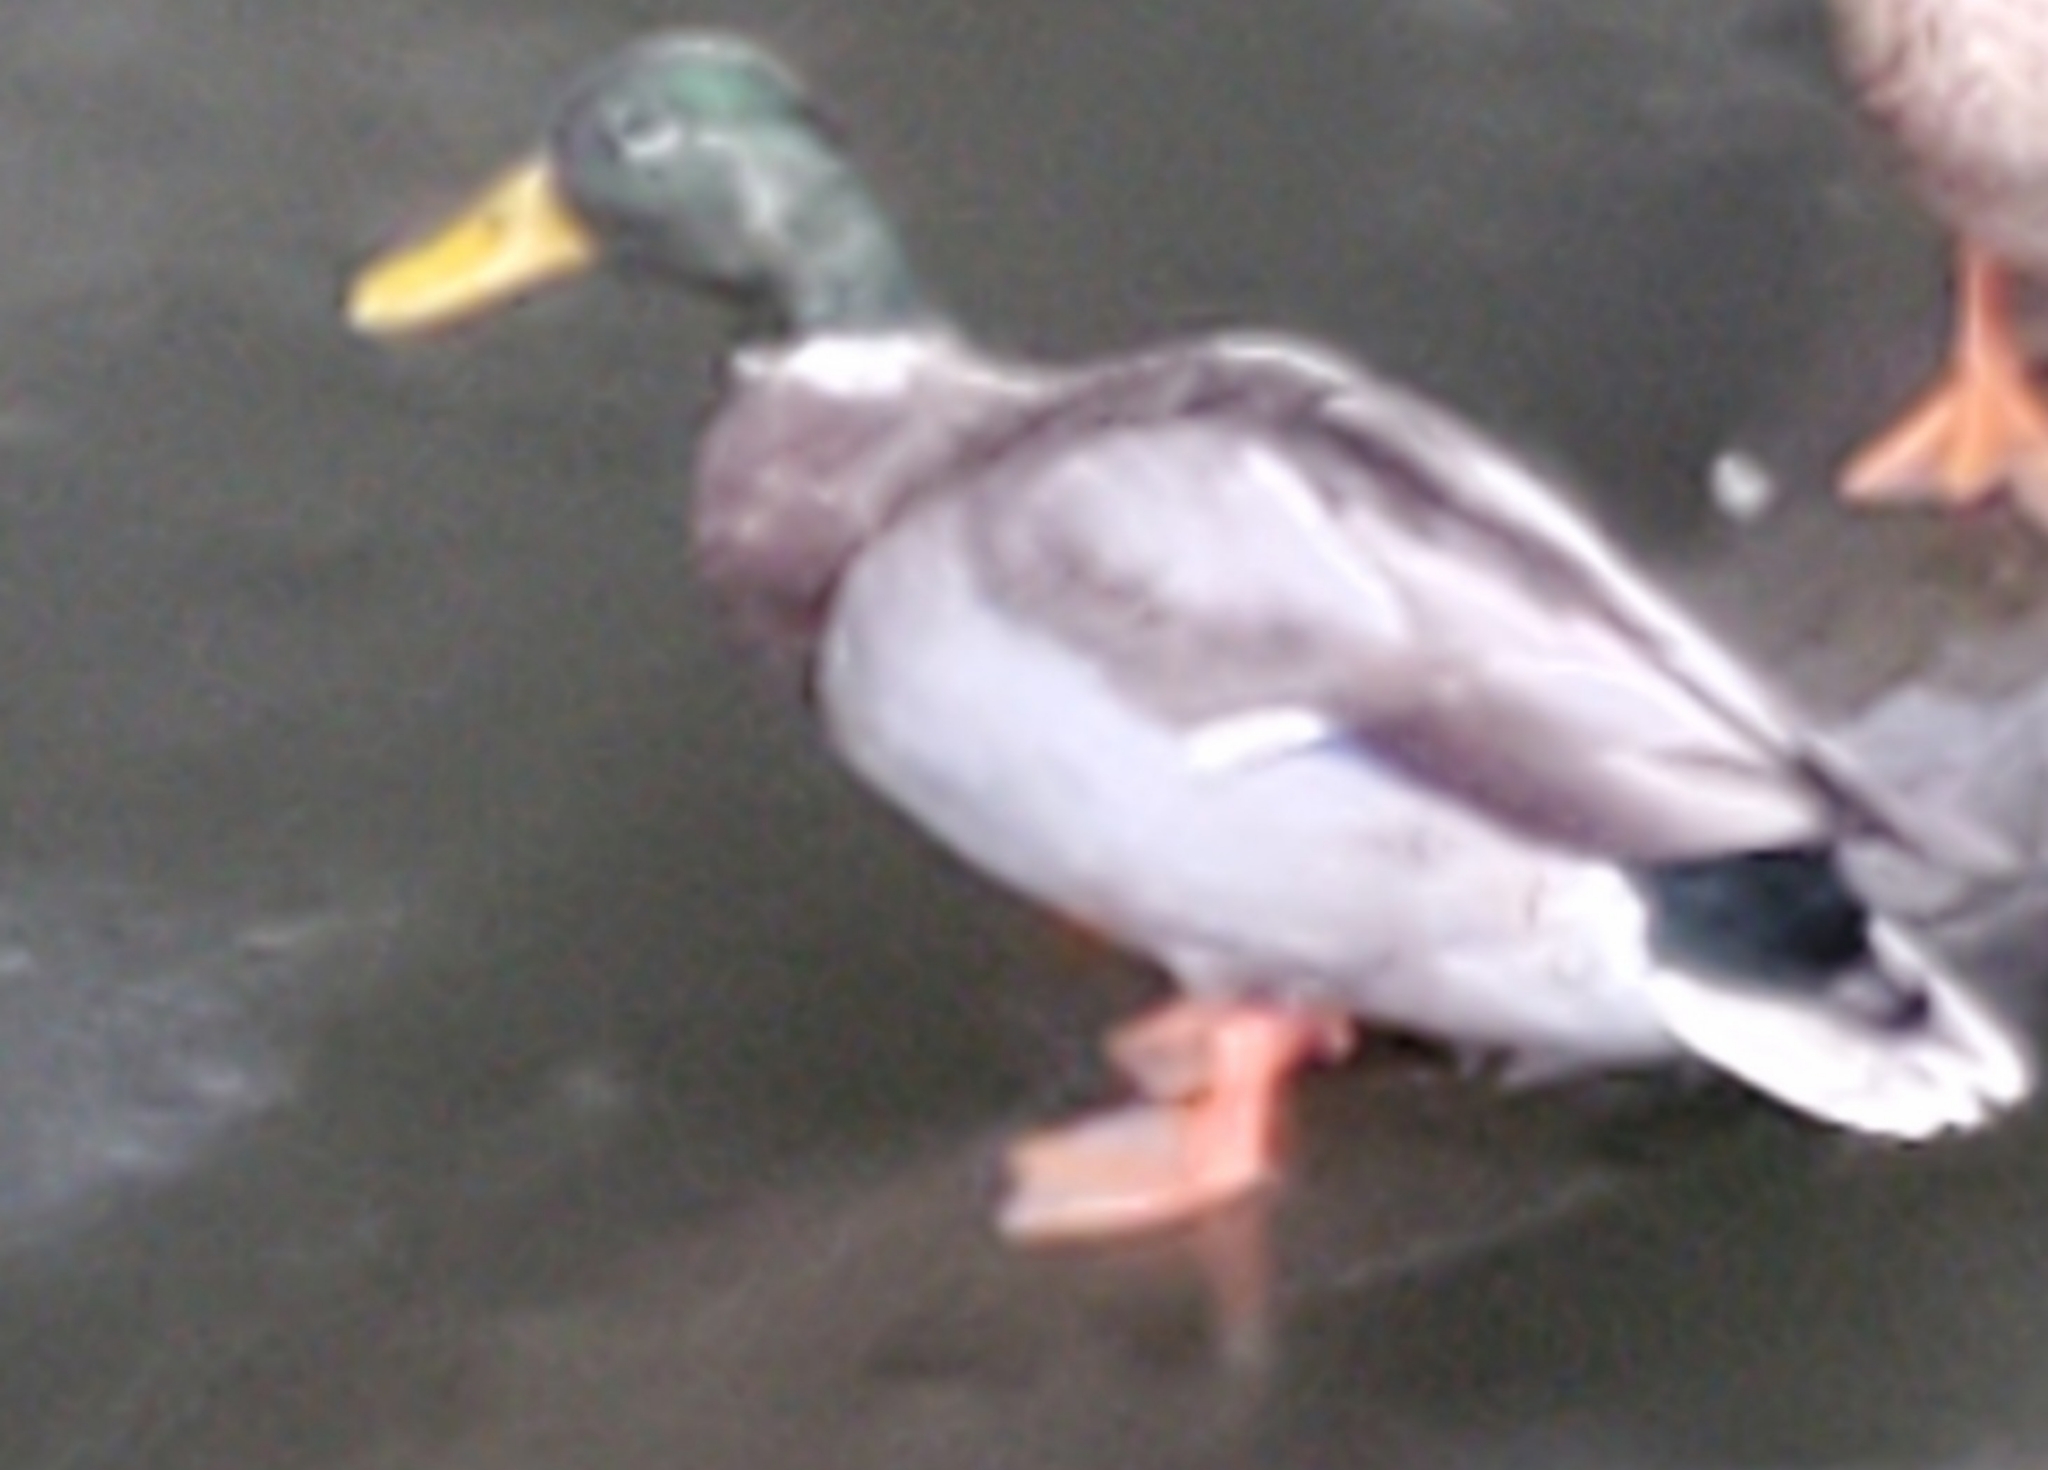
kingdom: Animalia
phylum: Chordata
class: Aves
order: Anseriformes
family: Anatidae
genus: Anas
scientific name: Anas platyrhynchos
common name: Mallard
